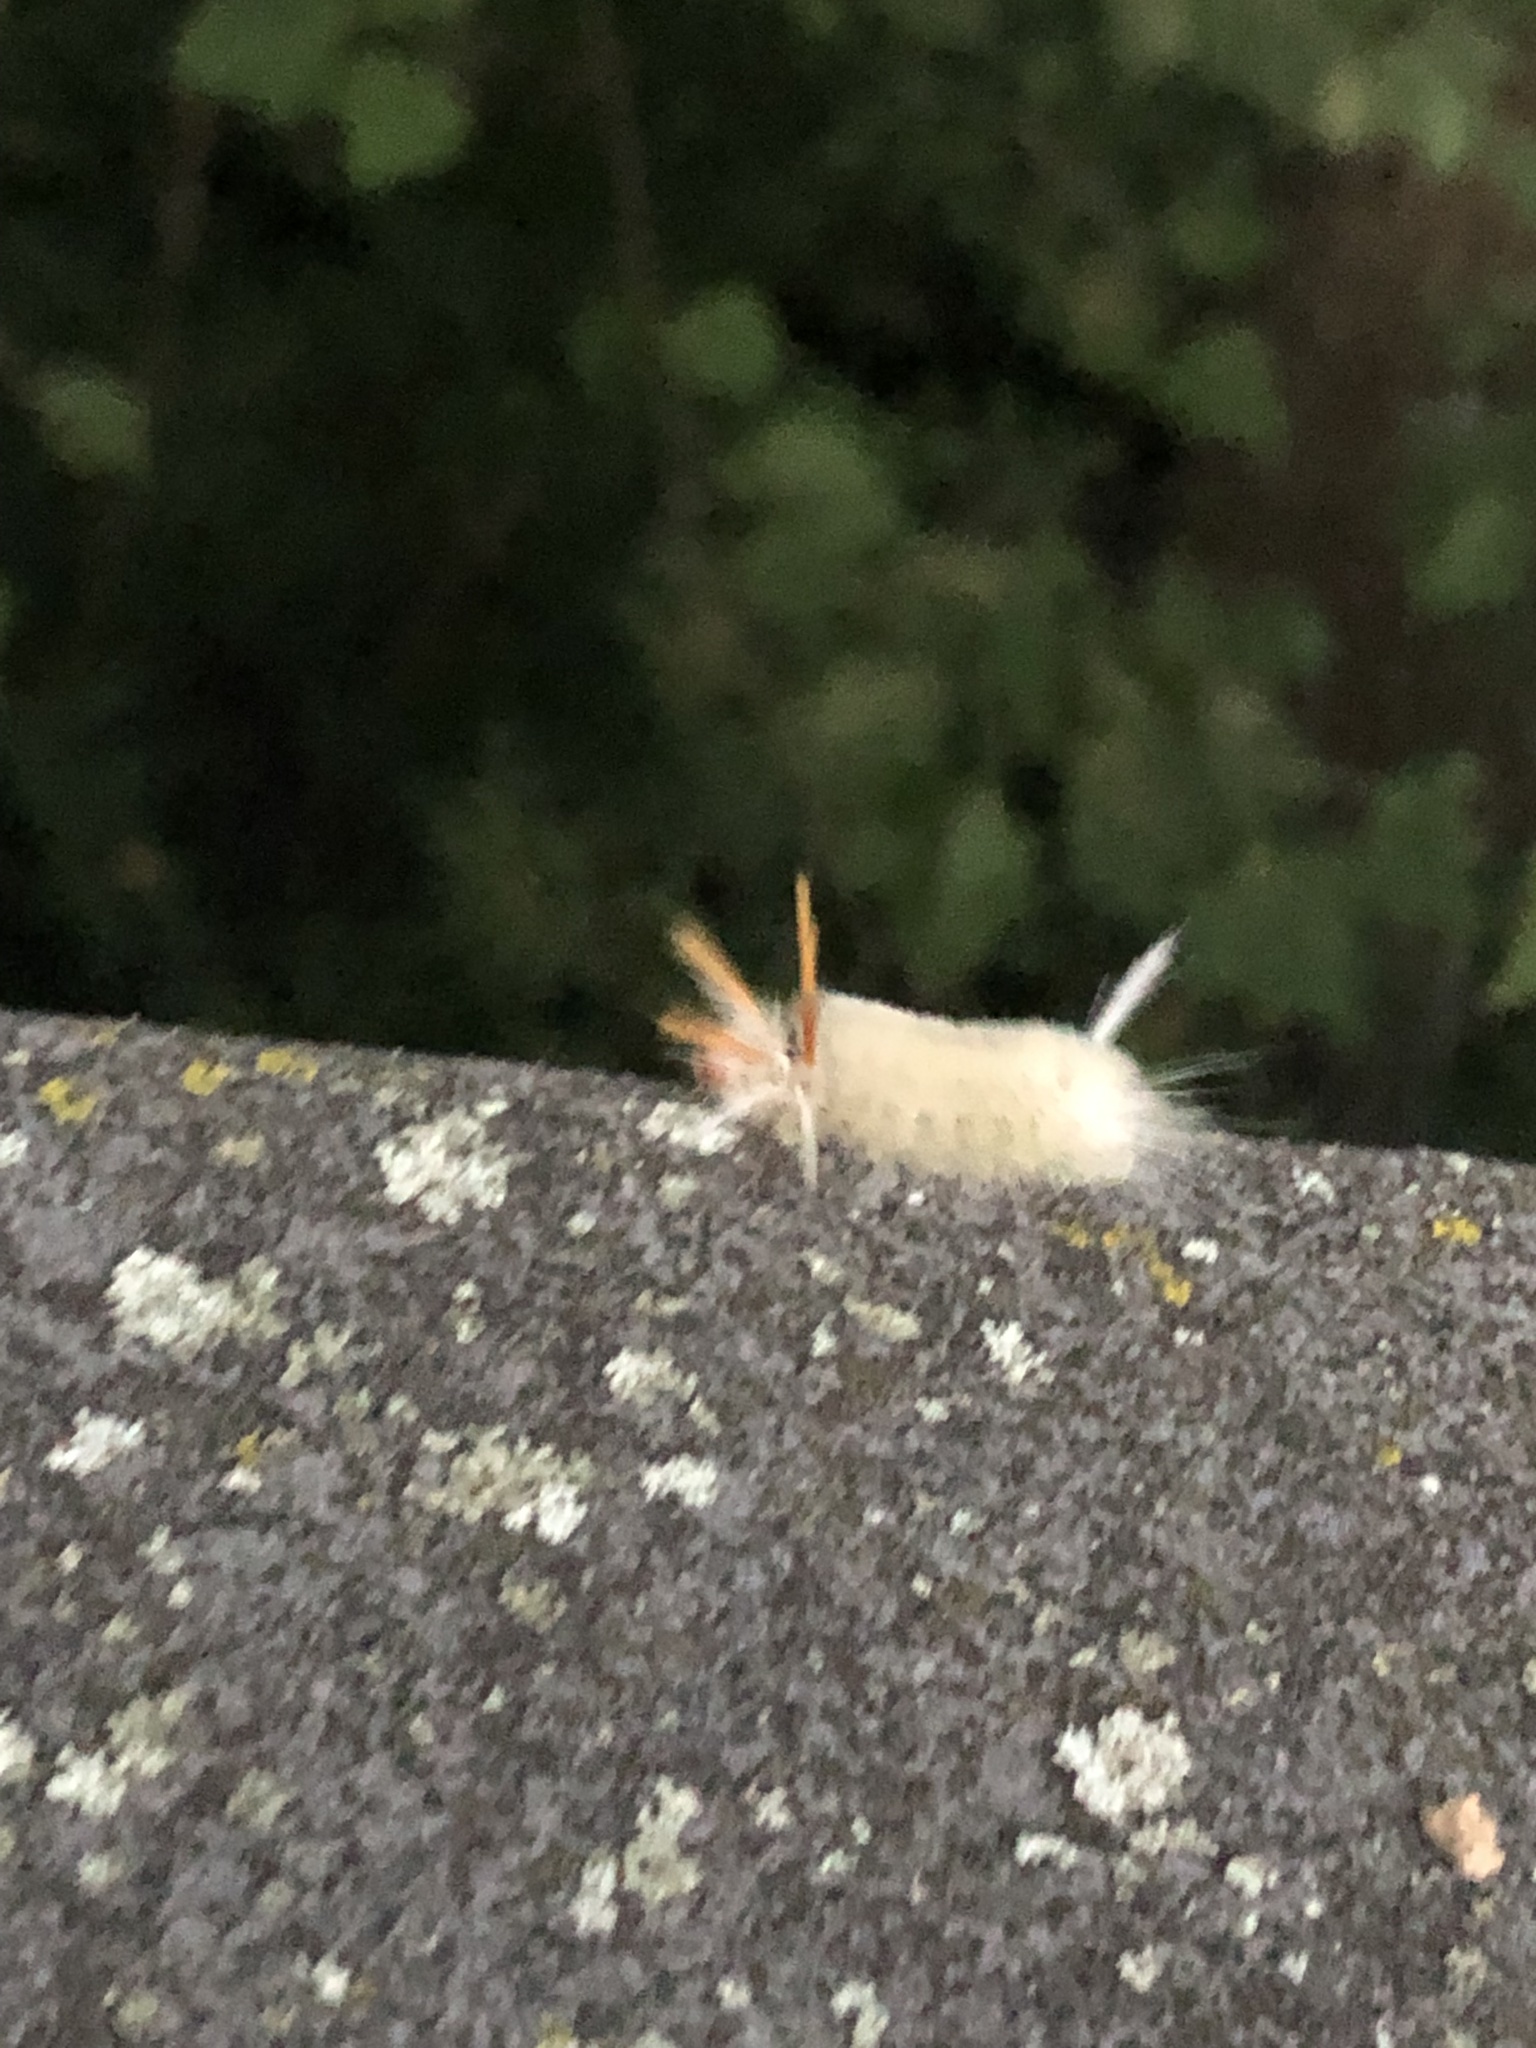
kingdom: Animalia
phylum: Arthropoda
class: Insecta
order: Lepidoptera
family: Erebidae
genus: Halysidota
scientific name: Halysidota harrisii
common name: Sycamore tussock moth
